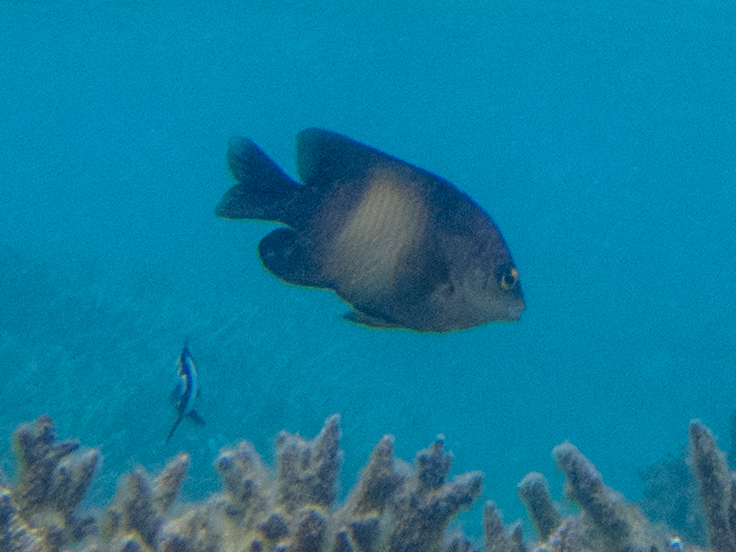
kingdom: Animalia
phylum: Chordata
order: Perciformes
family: Pomacentridae
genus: Stegastes
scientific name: Stegastes nigricans
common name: Dusky gregory
